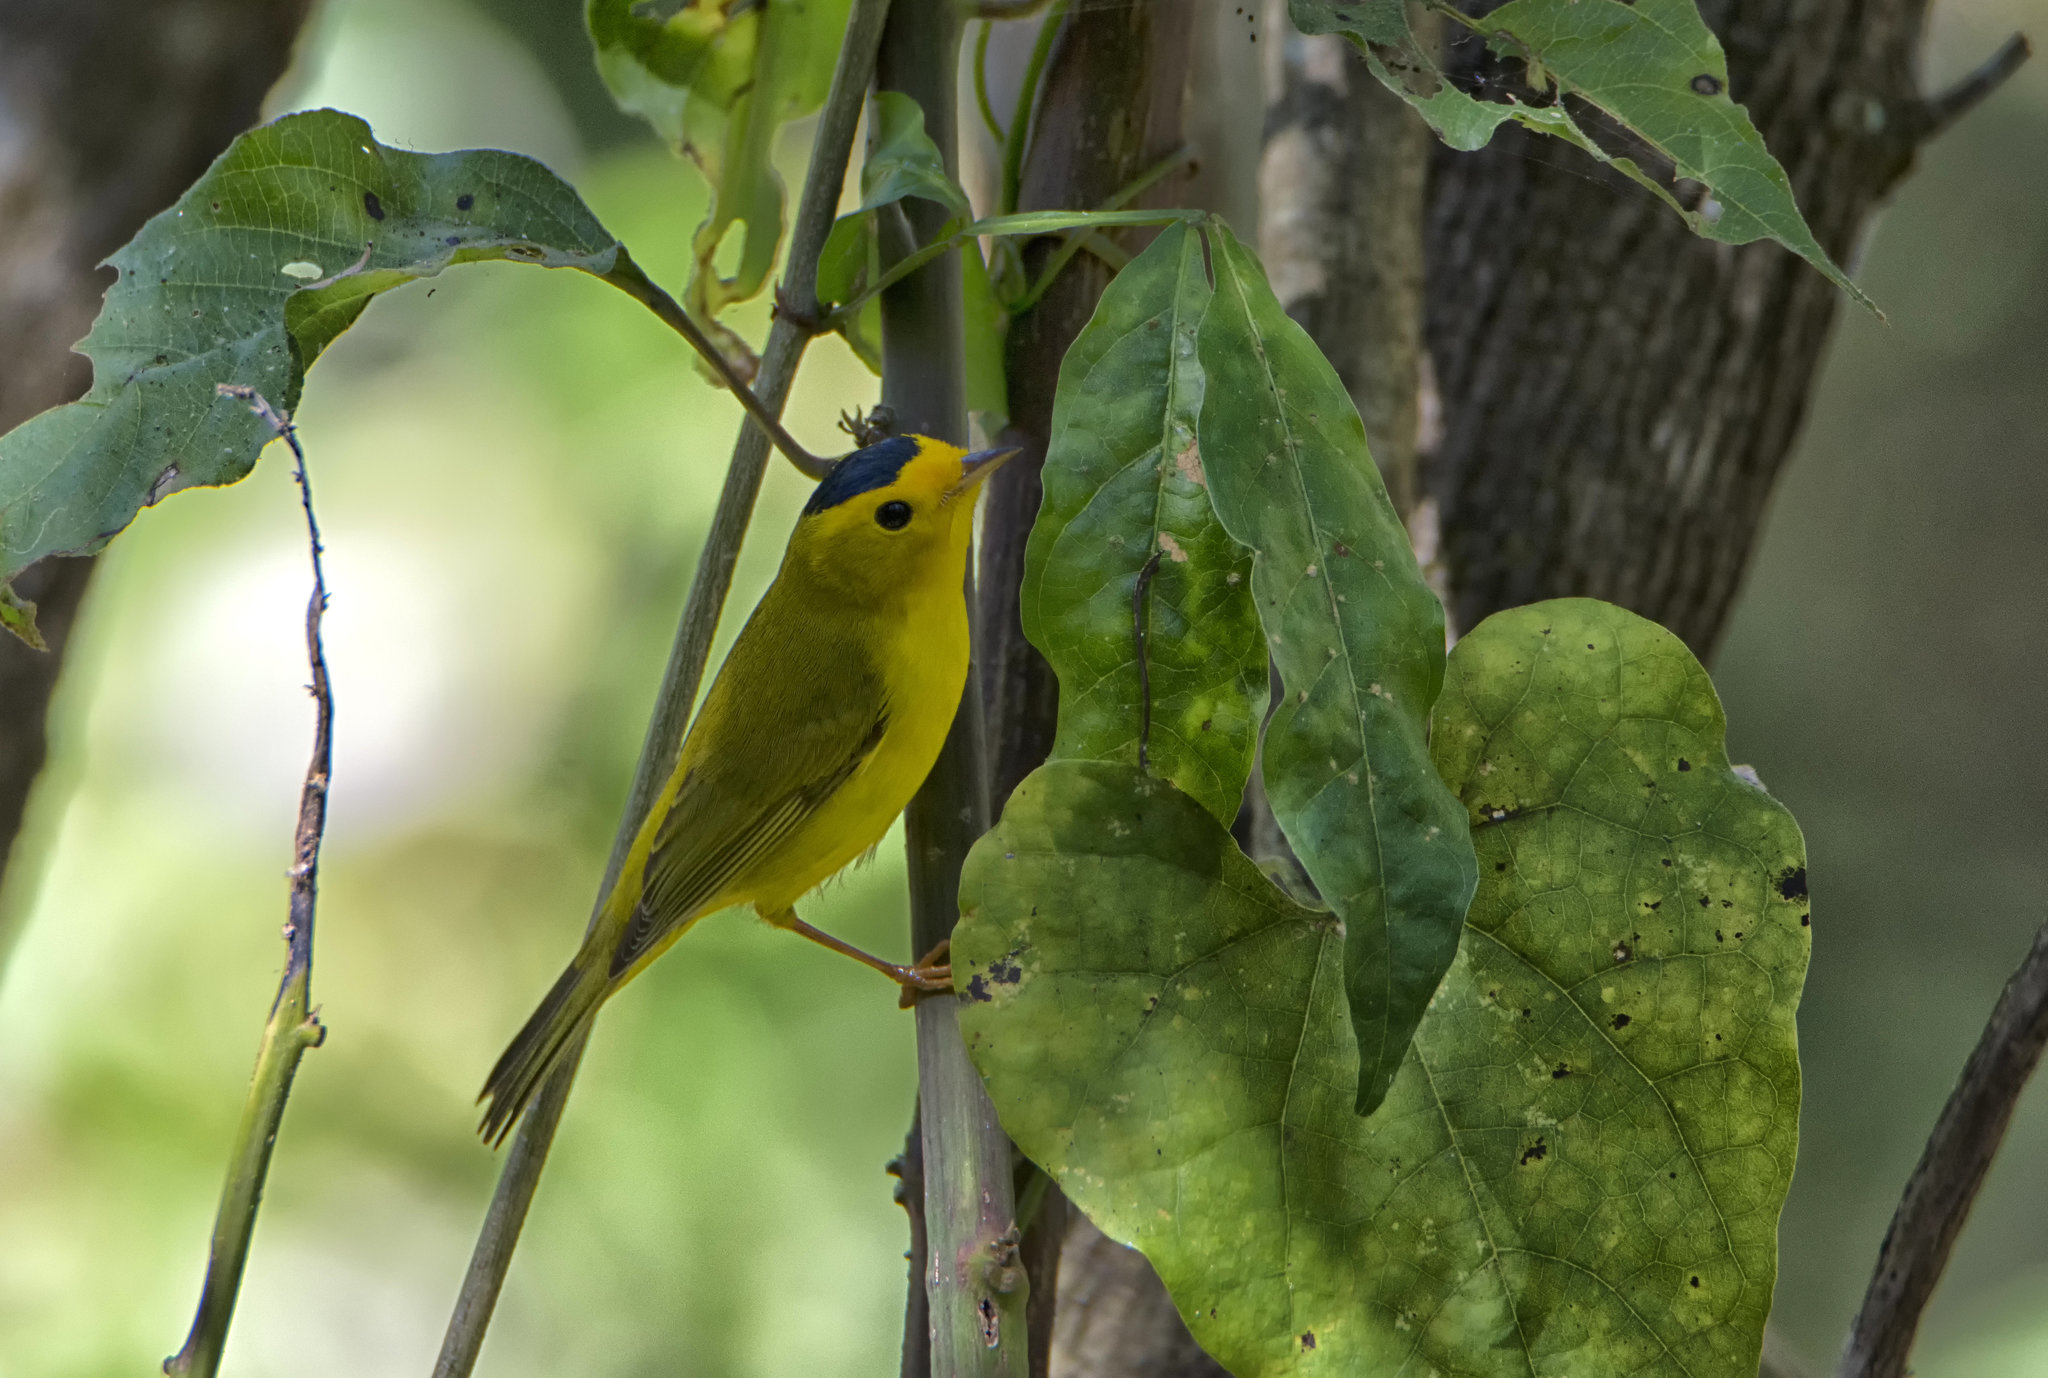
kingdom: Animalia
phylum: Chordata
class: Aves
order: Passeriformes
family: Parulidae
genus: Cardellina
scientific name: Cardellina pusilla
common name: Wilson's warbler
